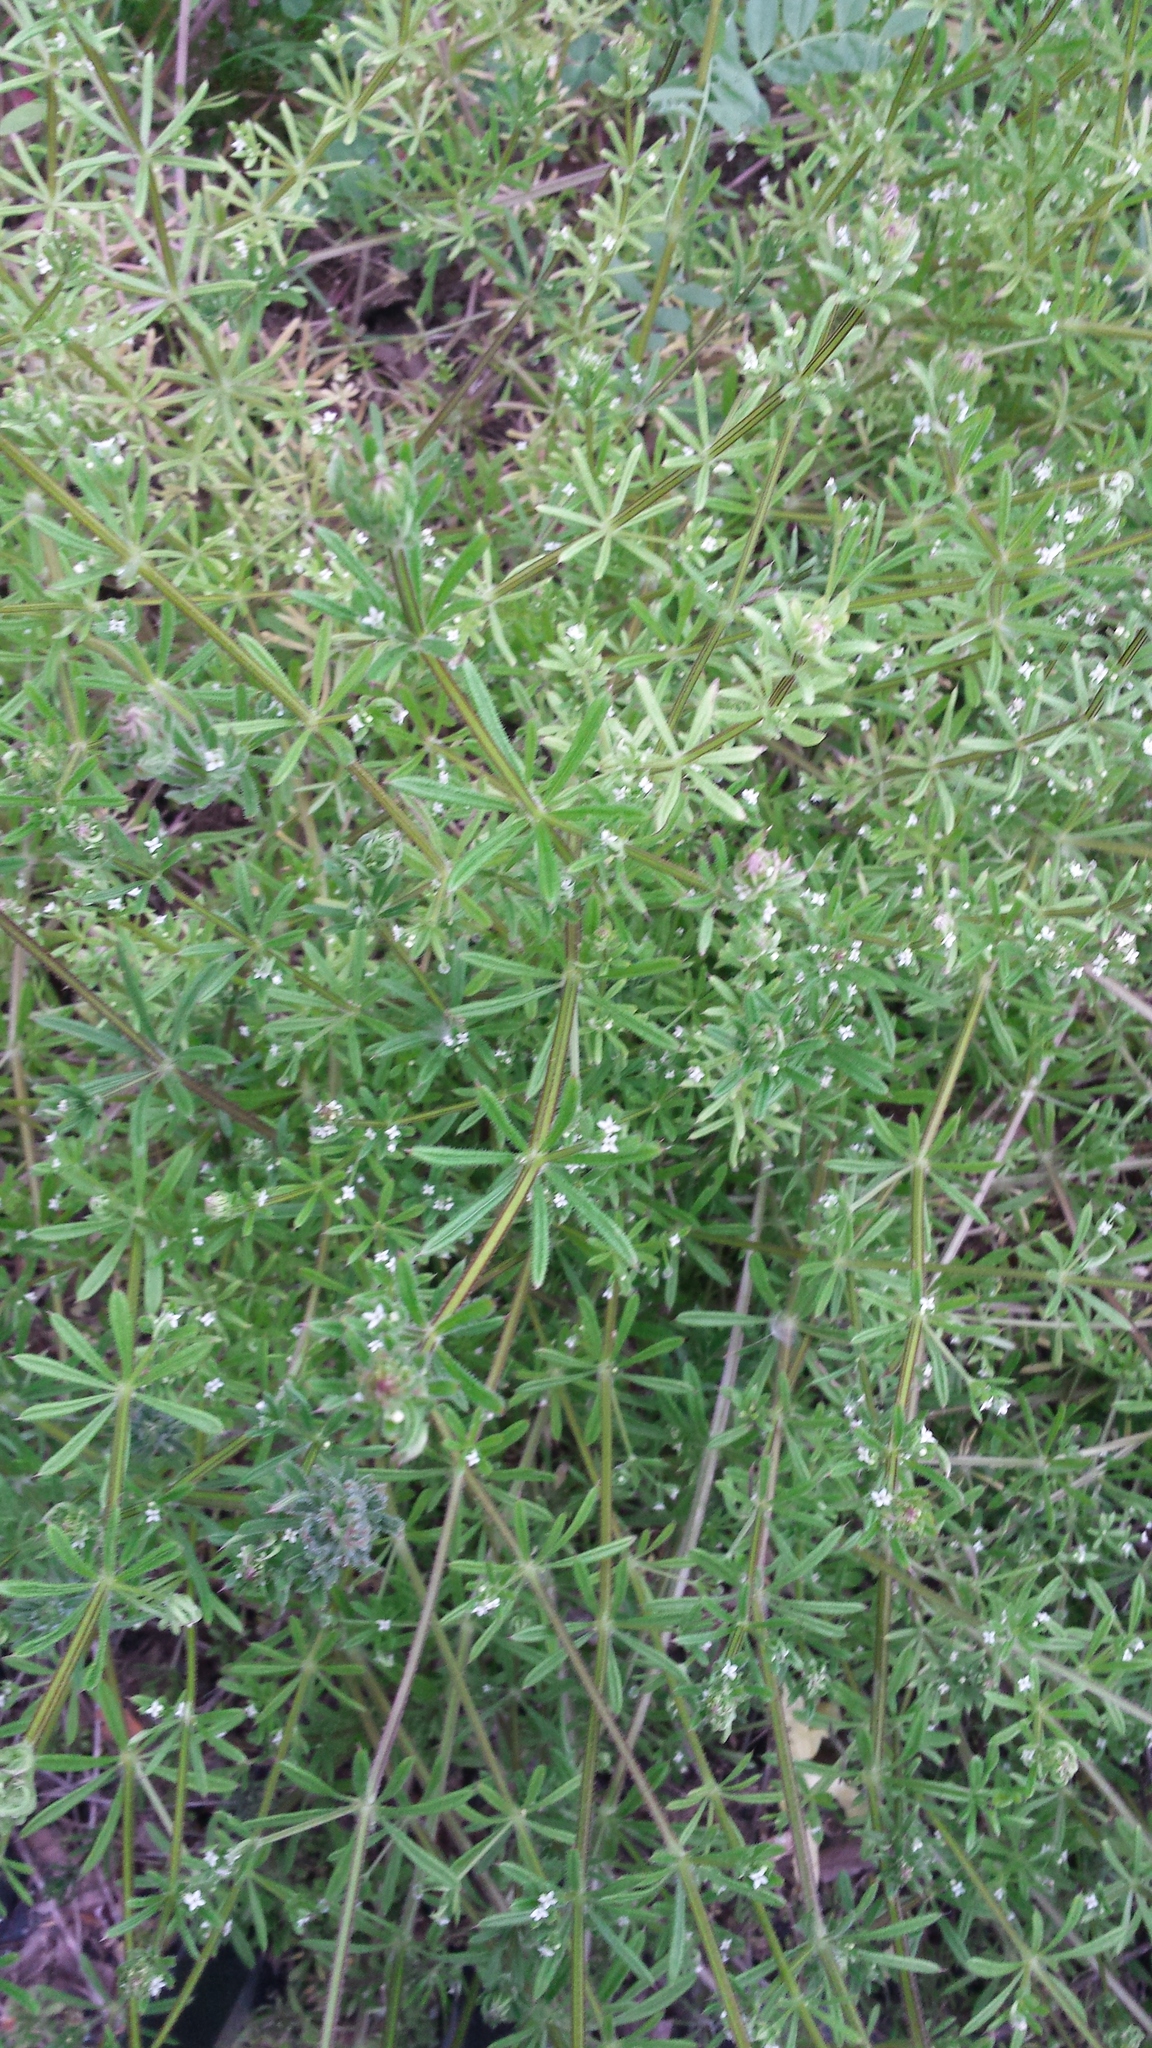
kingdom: Plantae
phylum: Tracheophyta
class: Magnoliopsida
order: Gentianales
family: Rubiaceae
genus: Galium
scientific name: Galium aparine
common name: Cleavers
